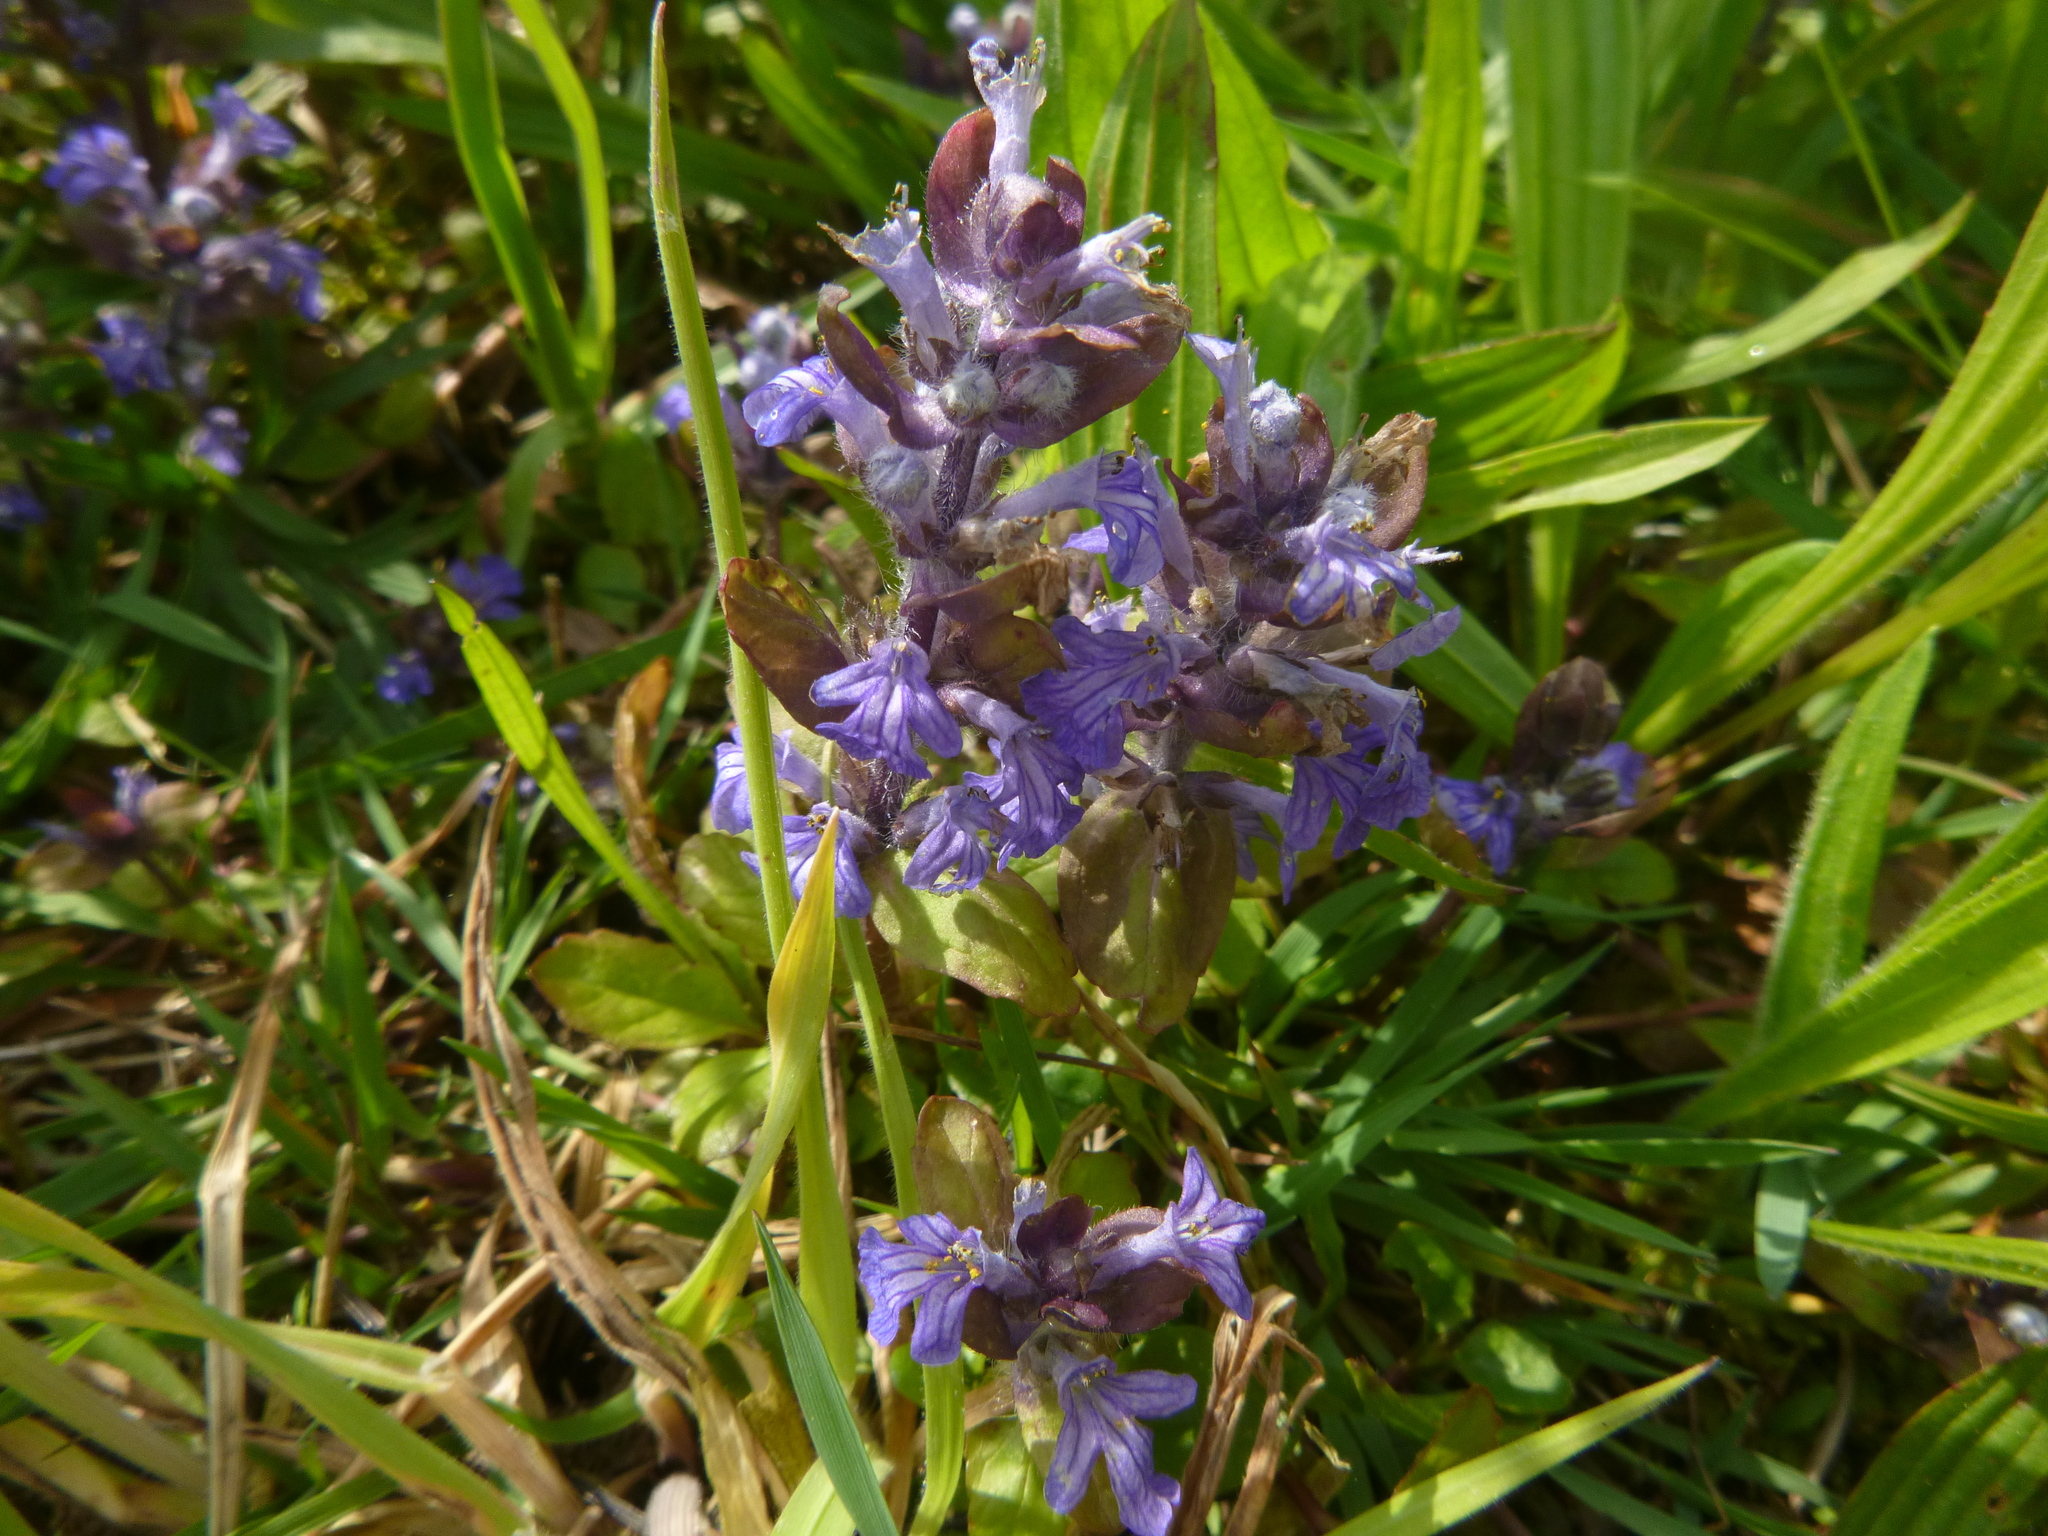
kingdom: Plantae
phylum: Tracheophyta
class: Magnoliopsida
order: Lamiales
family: Lamiaceae
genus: Ajuga
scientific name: Ajuga reptans
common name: Bugle
